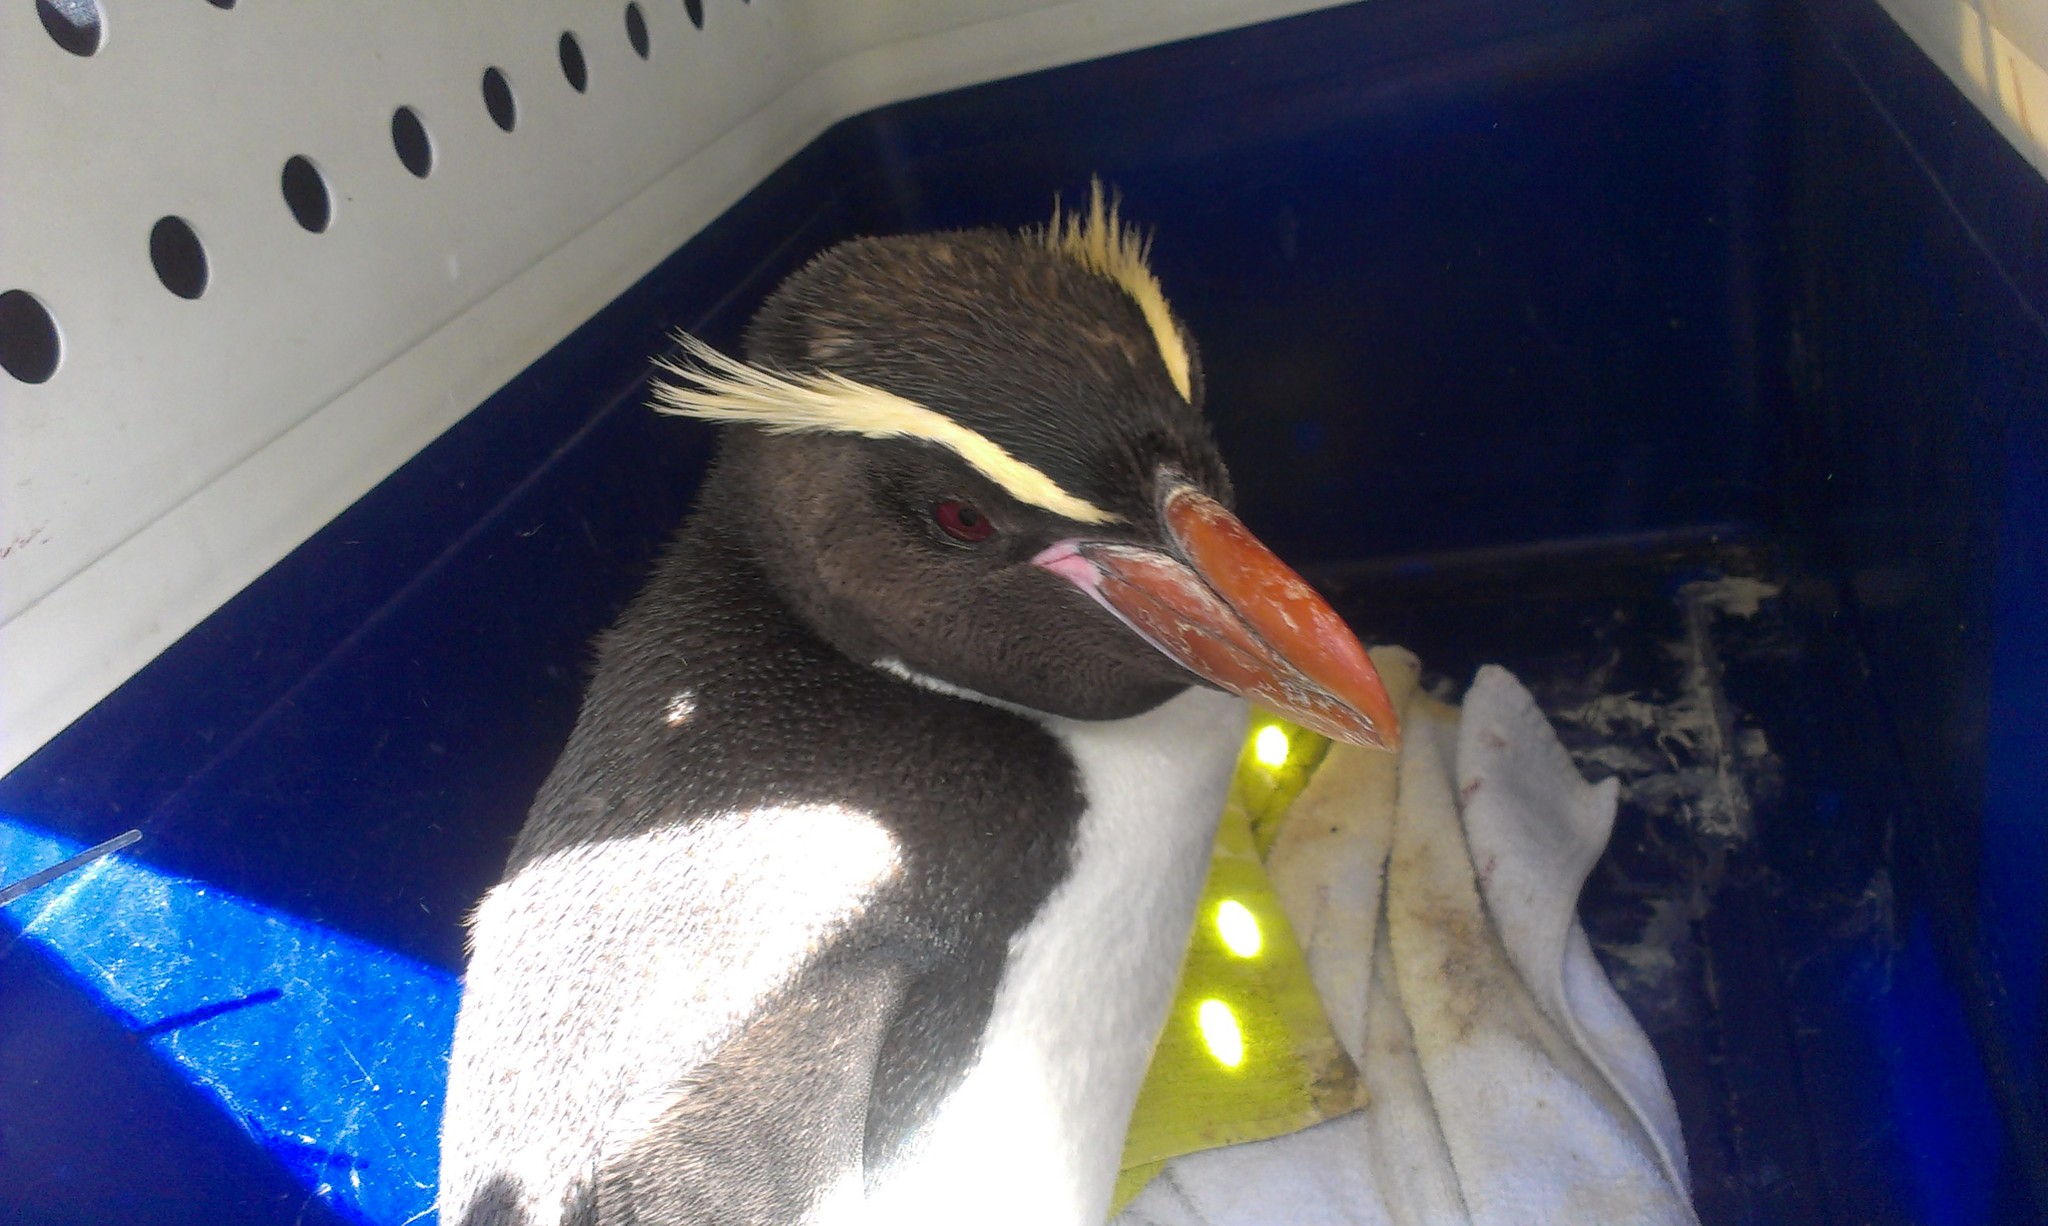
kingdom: Animalia
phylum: Chordata
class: Aves
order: Sphenisciformes
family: Spheniscidae
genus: Eudyptes
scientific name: Eudyptes robustus
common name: Snares penguin
